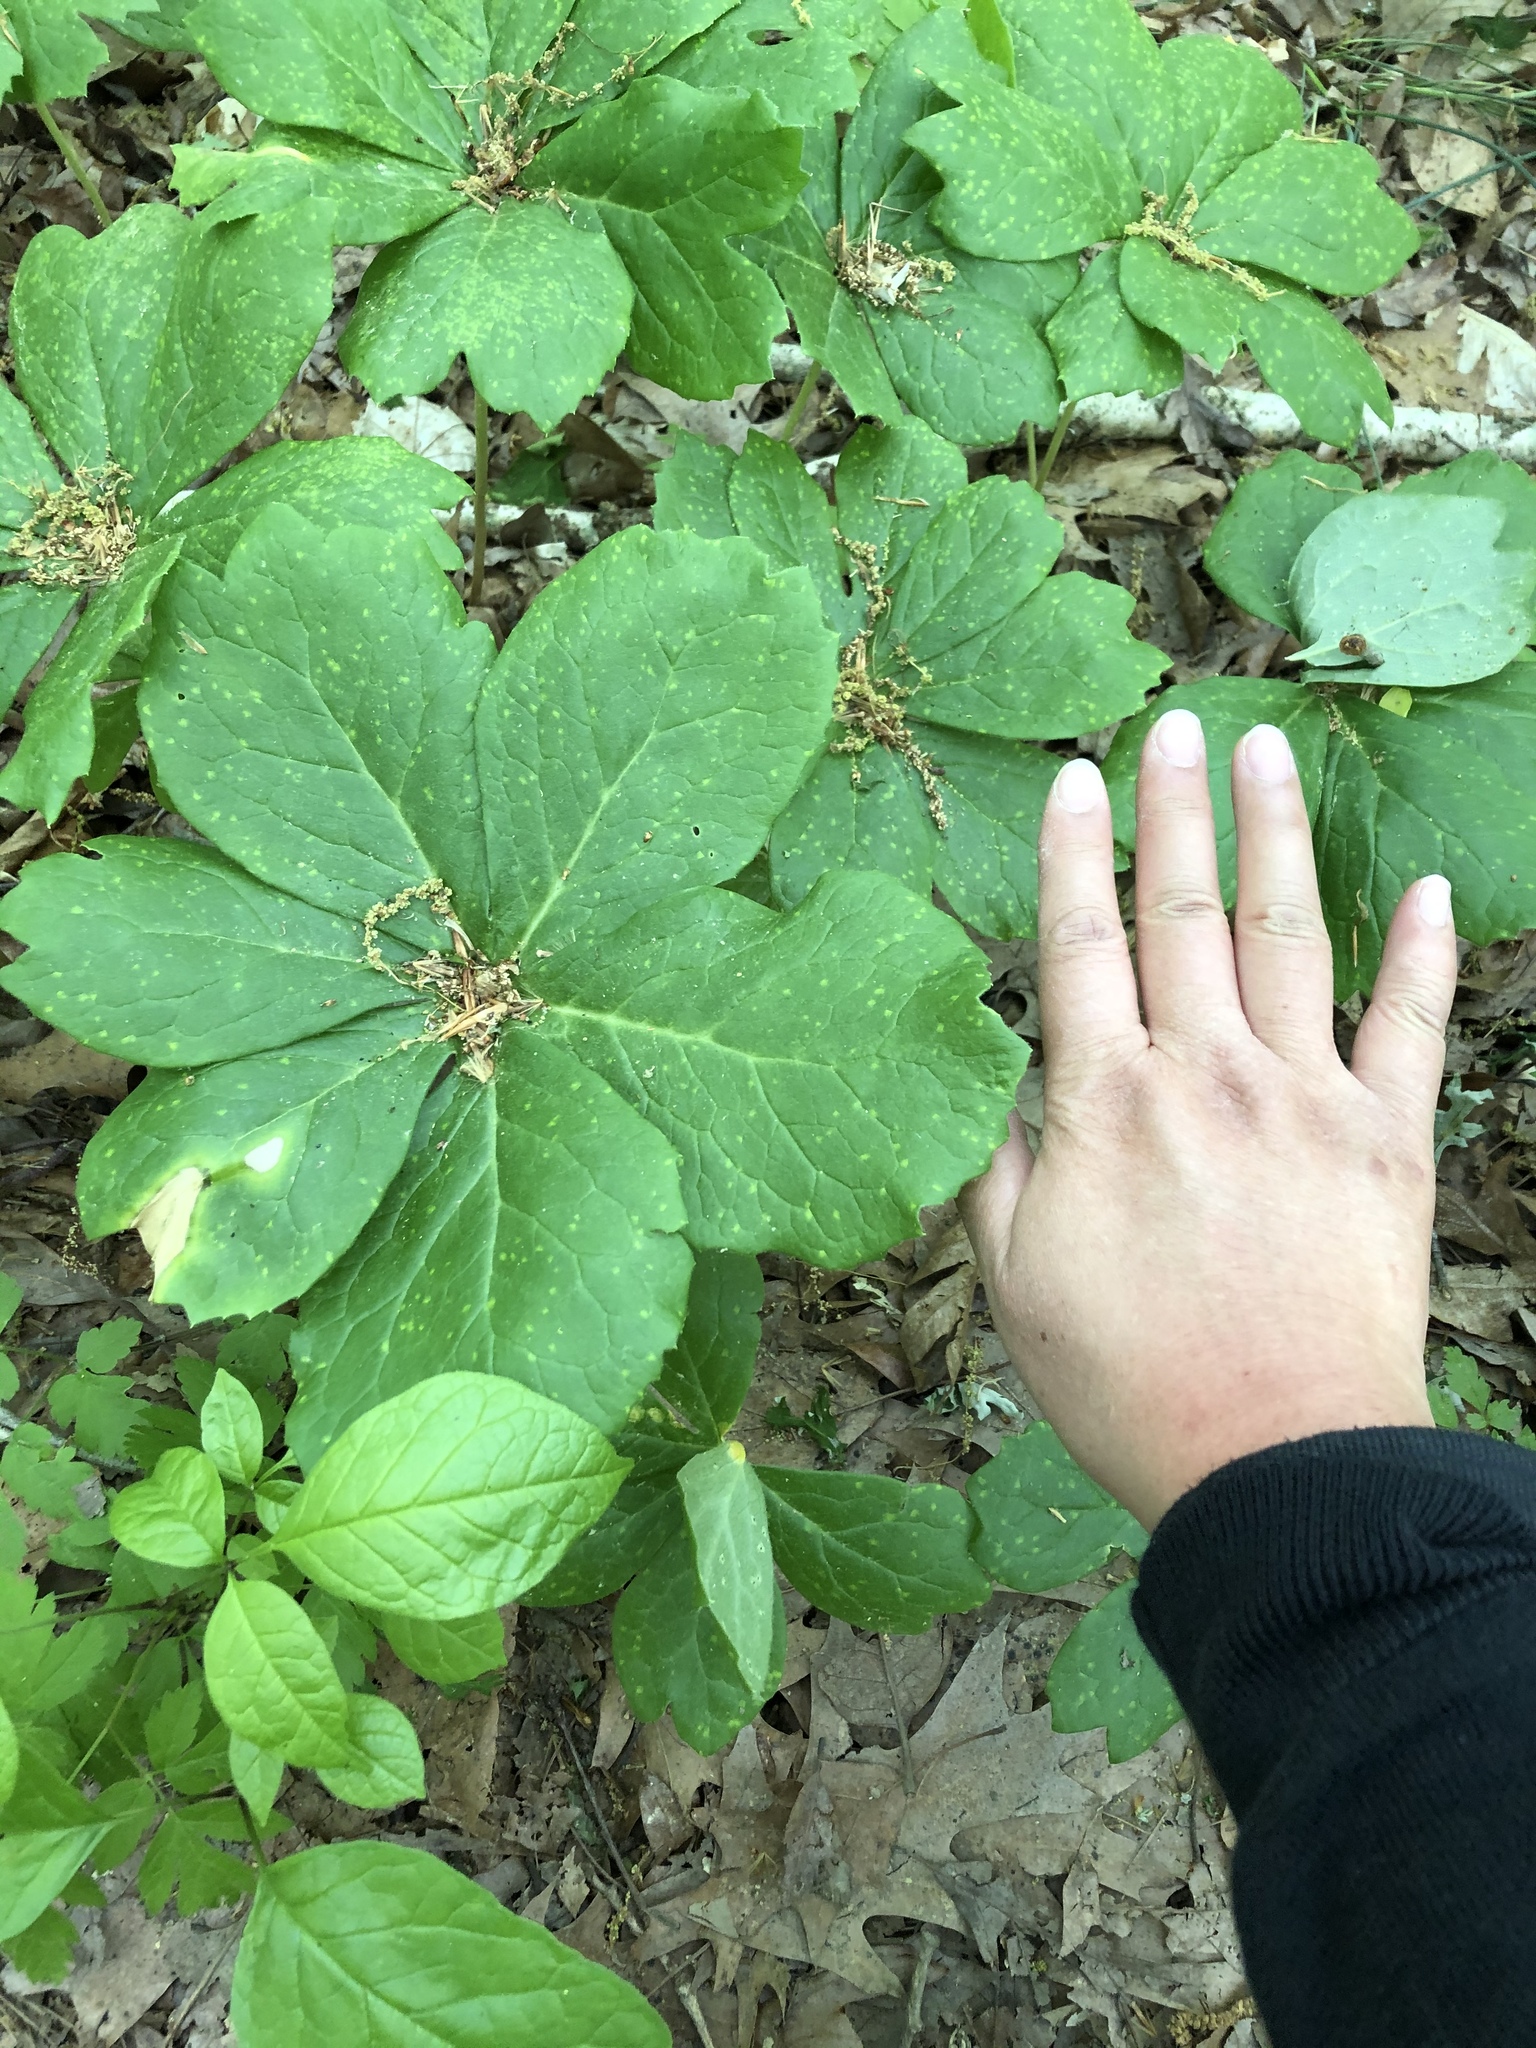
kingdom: Plantae
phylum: Tracheophyta
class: Magnoliopsida
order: Ranunculales
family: Berberidaceae
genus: Podophyllum
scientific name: Podophyllum peltatum
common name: Wild mandrake
